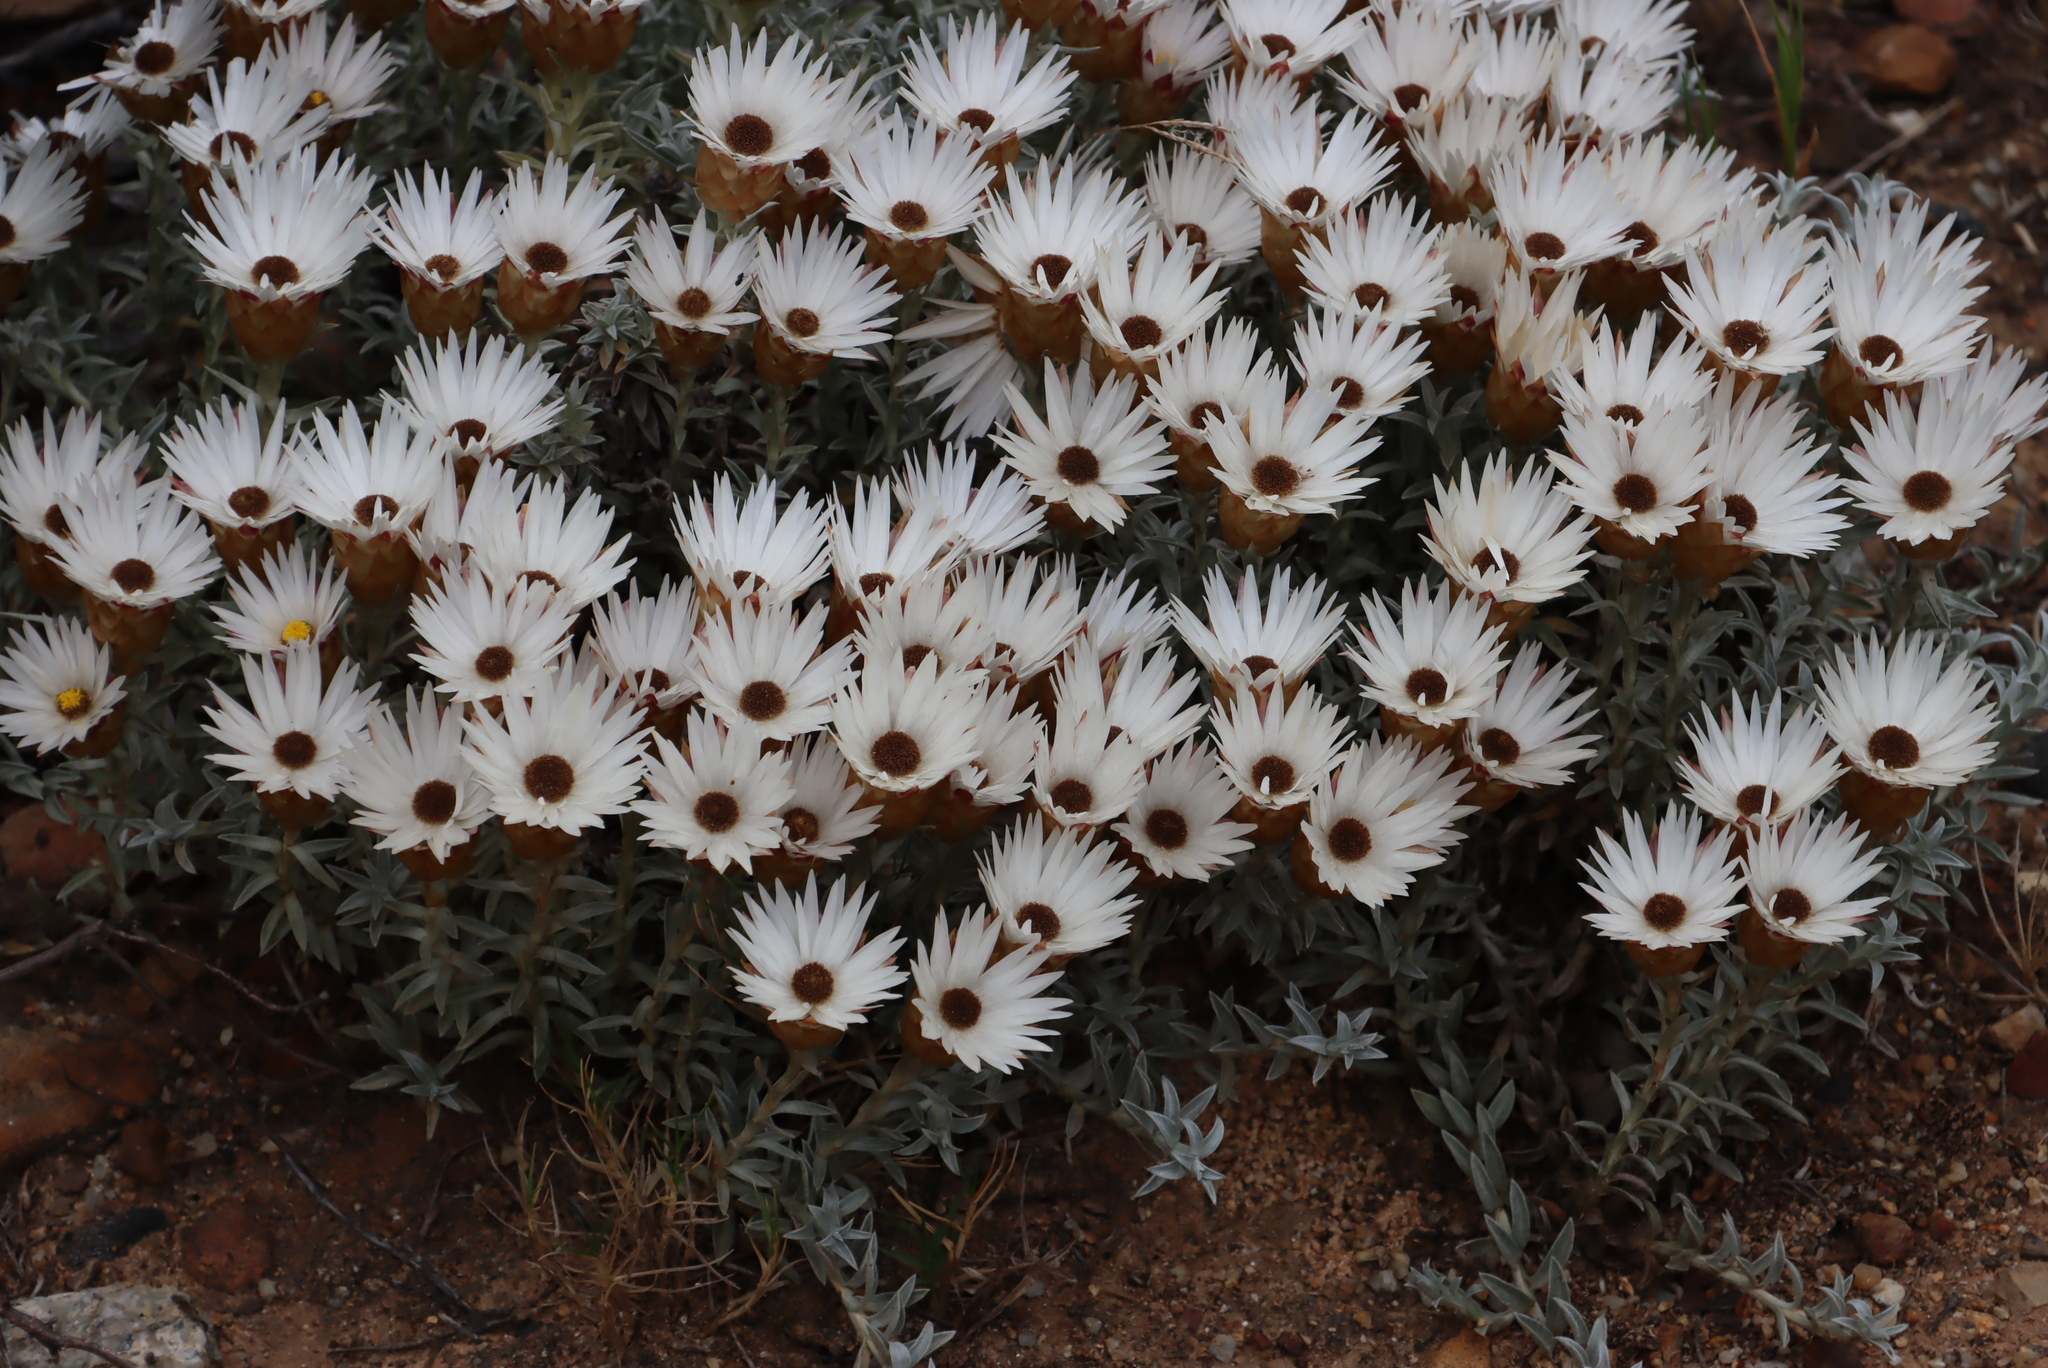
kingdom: Plantae
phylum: Tracheophyta
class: Magnoliopsida
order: Asterales
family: Asteraceae
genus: Helichrysum
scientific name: Helichrysum retortum
